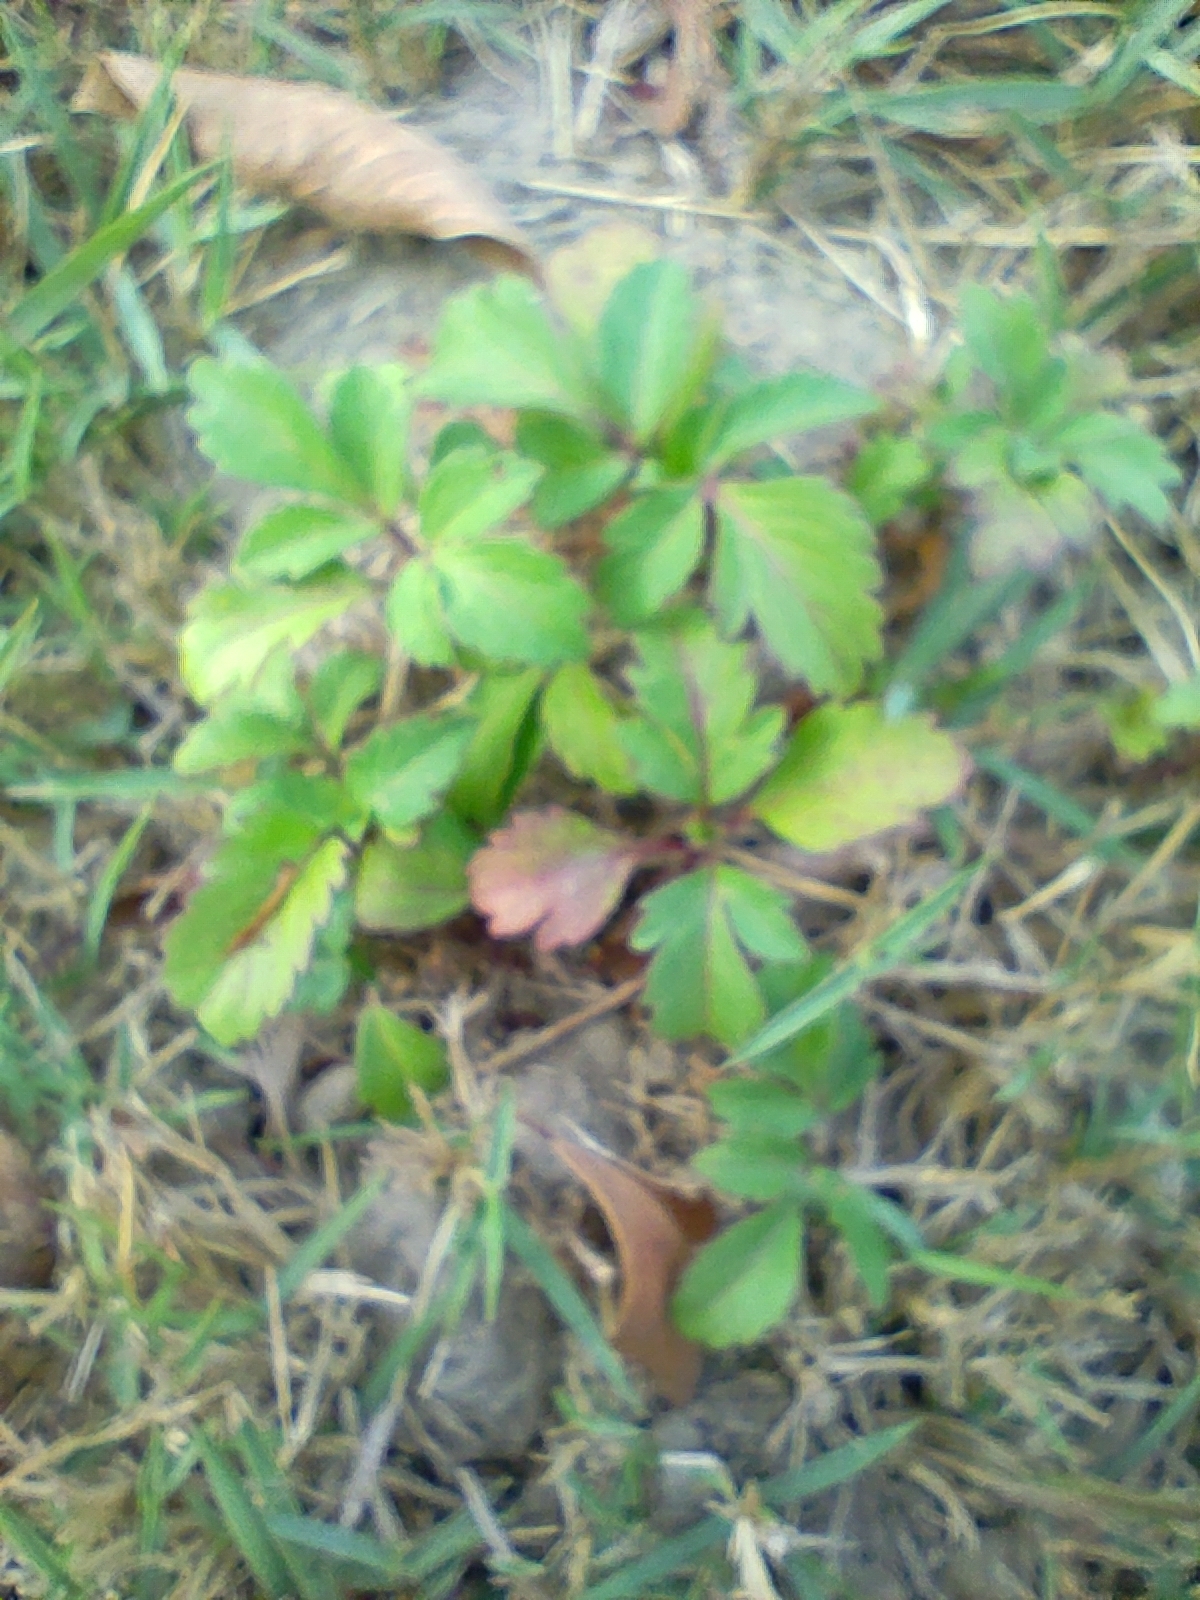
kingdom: Plantae
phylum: Tracheophyta
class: Magnoliopsida
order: Asterales
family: Asteraceae
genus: Bidens
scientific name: Bidens alba
